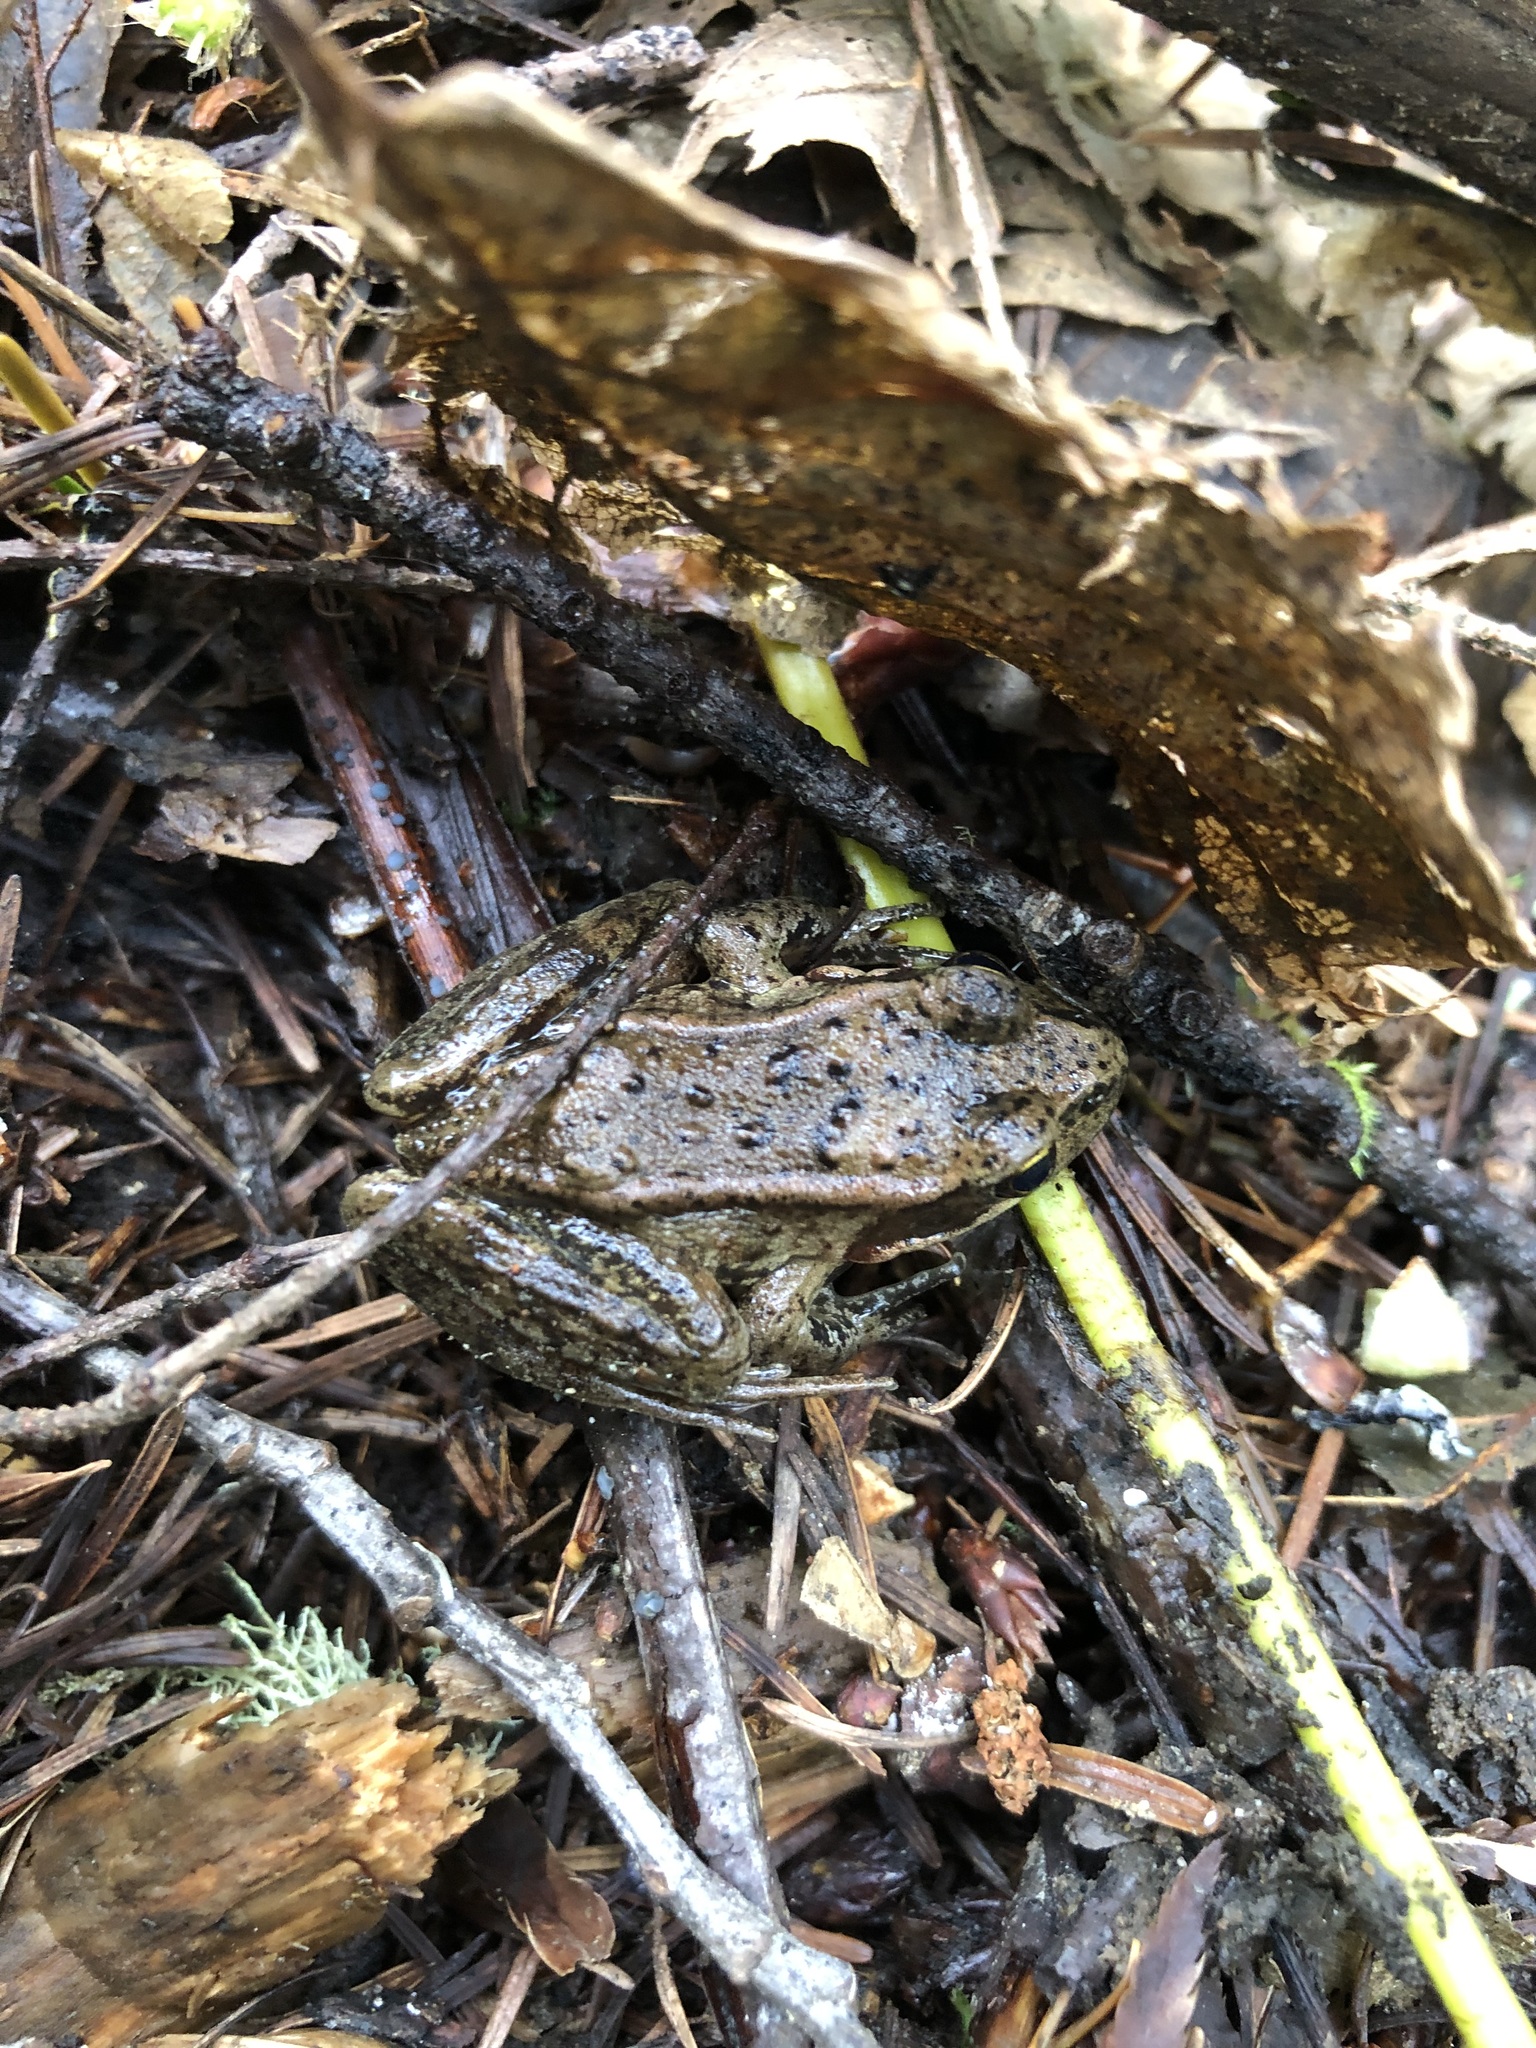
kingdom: Animalia
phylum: Chordata
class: Amphibia
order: Anura
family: Ranidae
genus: Rana
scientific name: Rana aurora
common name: Red-legged frog
